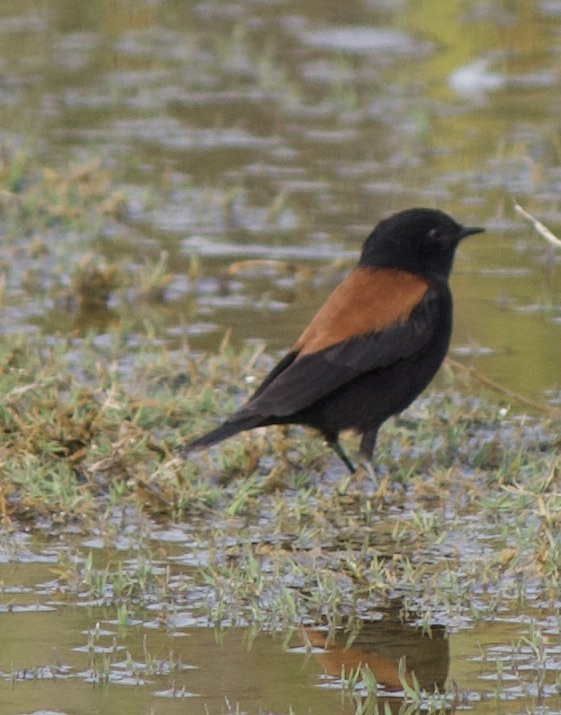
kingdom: Animalia
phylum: Chordata
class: Aves
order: Passeriformes
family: Tyrannidae
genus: Lessonia
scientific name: Lessonia rufa
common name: Austral negrito
